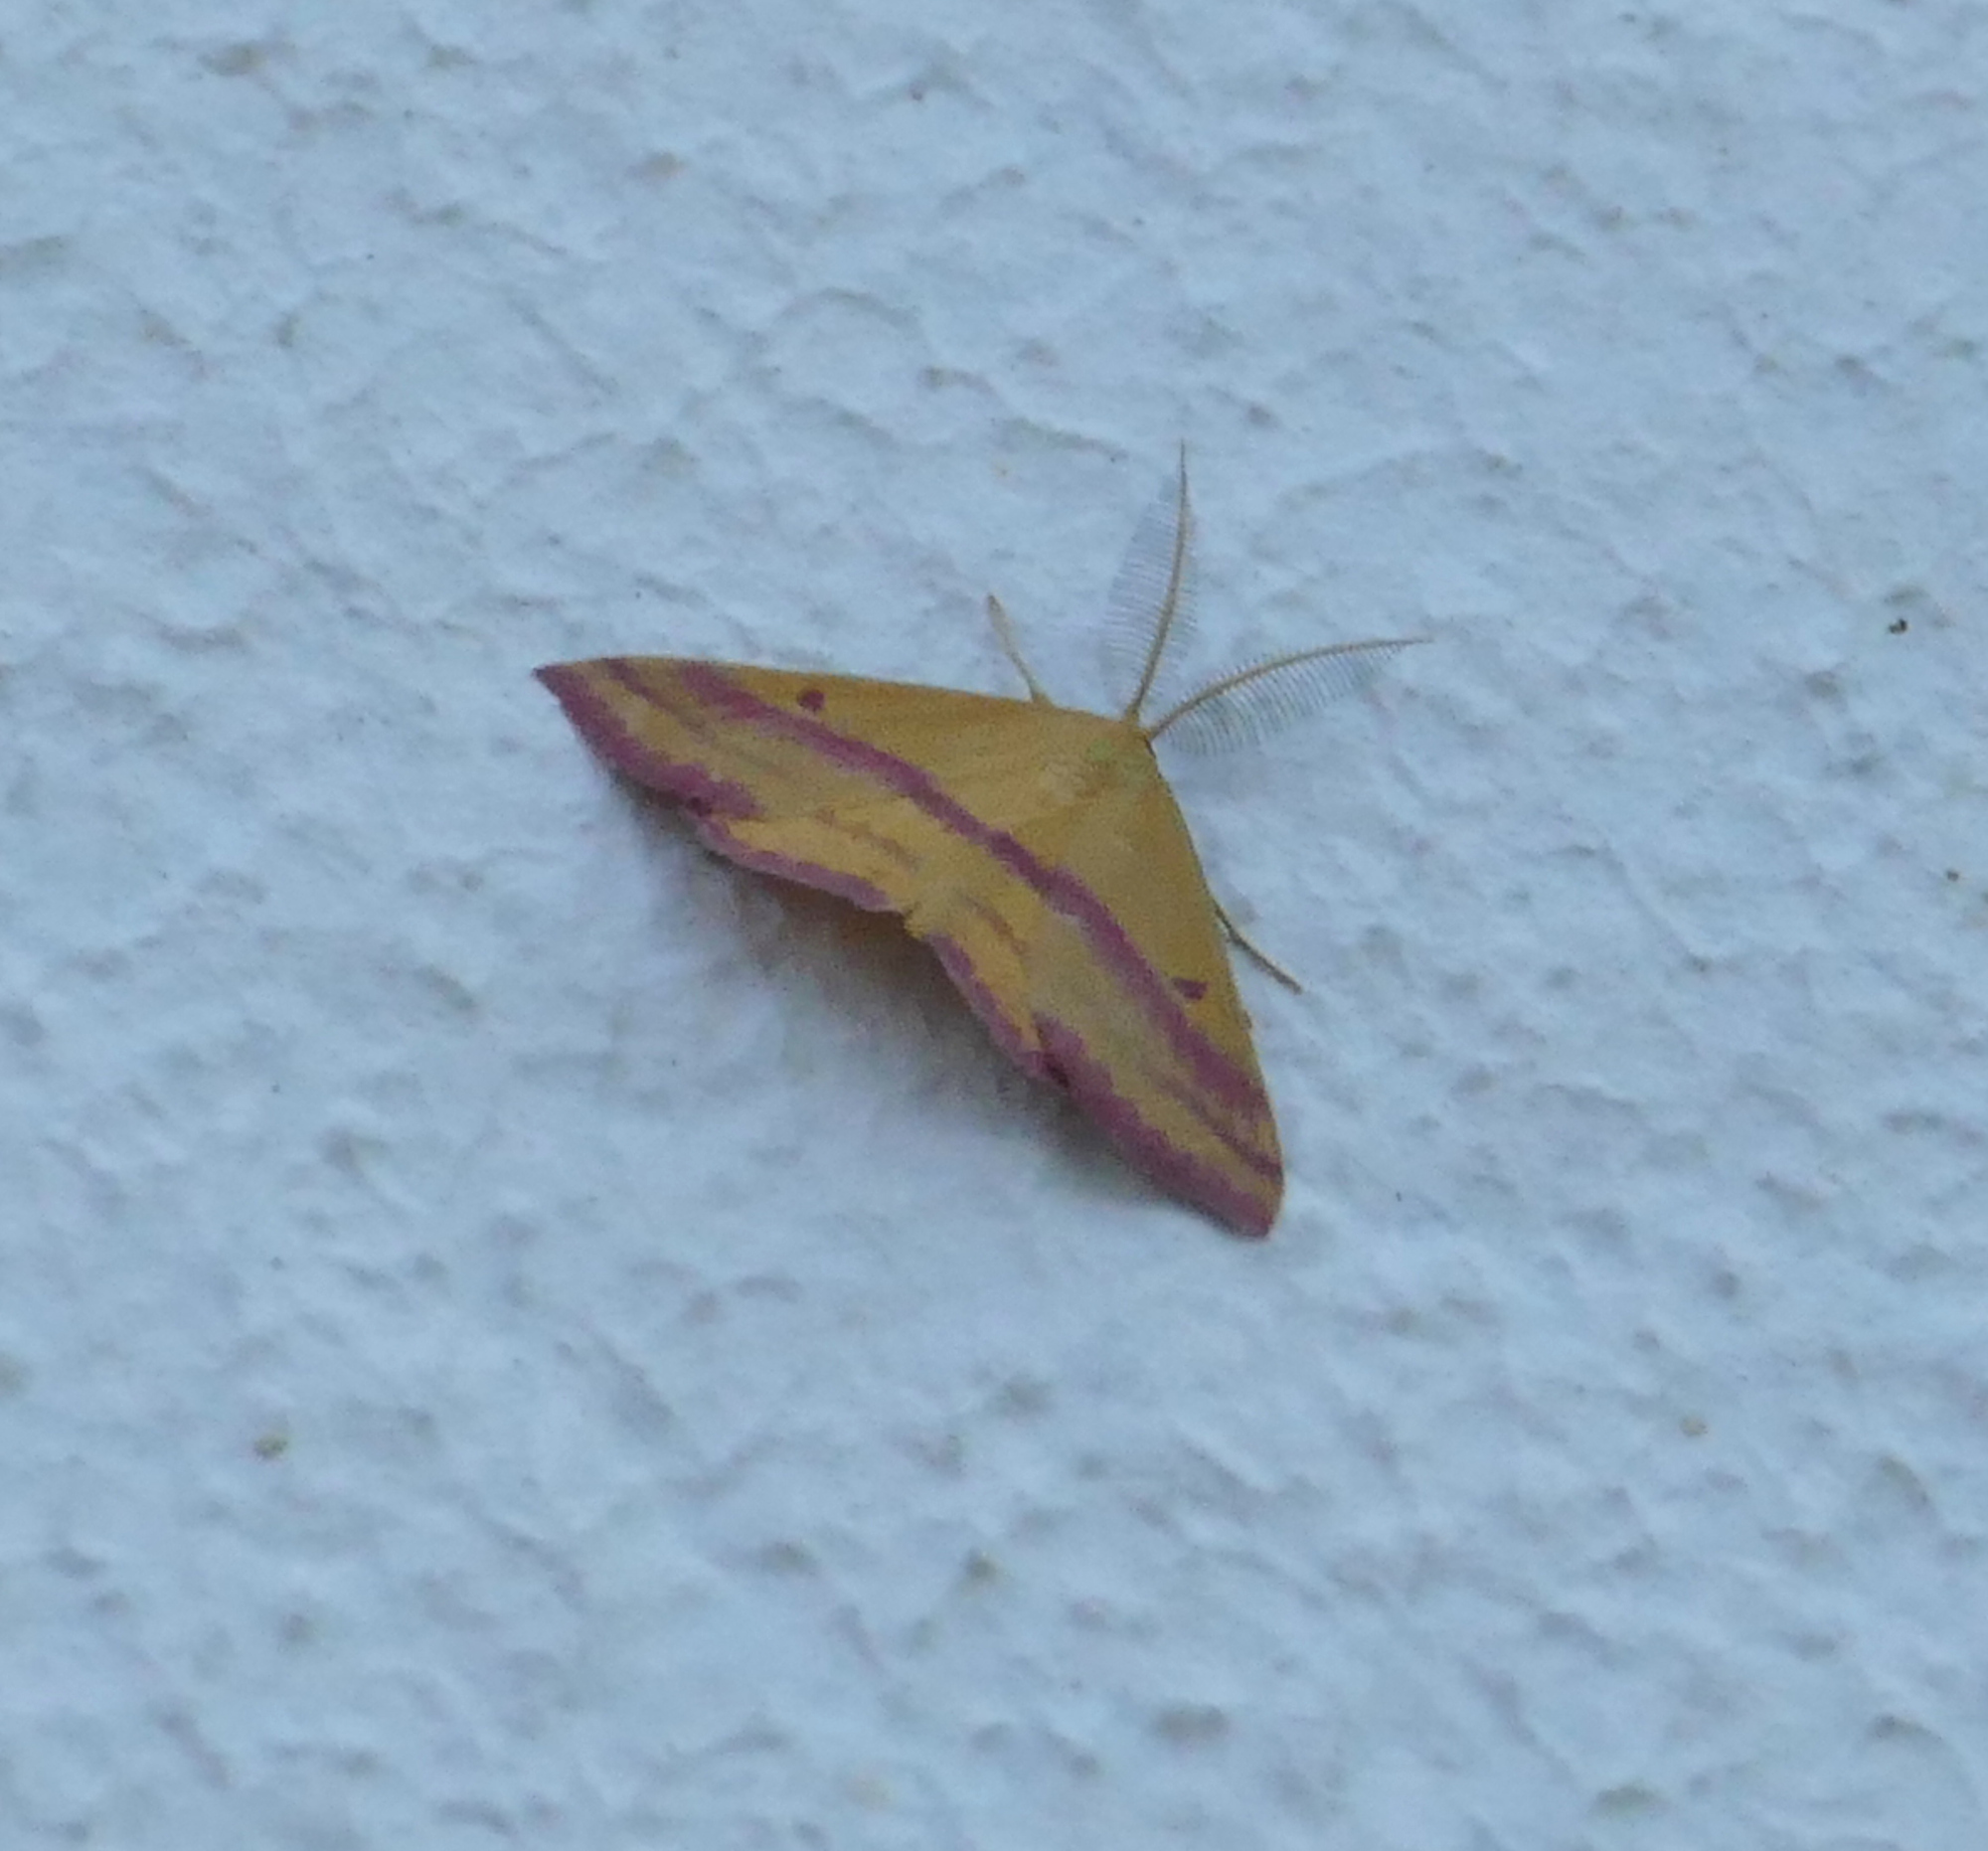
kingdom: Animalia
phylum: Arthropoda
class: Insecta
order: Lepidoptera
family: Geometridae
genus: Haematopis
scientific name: Haematopis grataria
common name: Chickweed geometer
